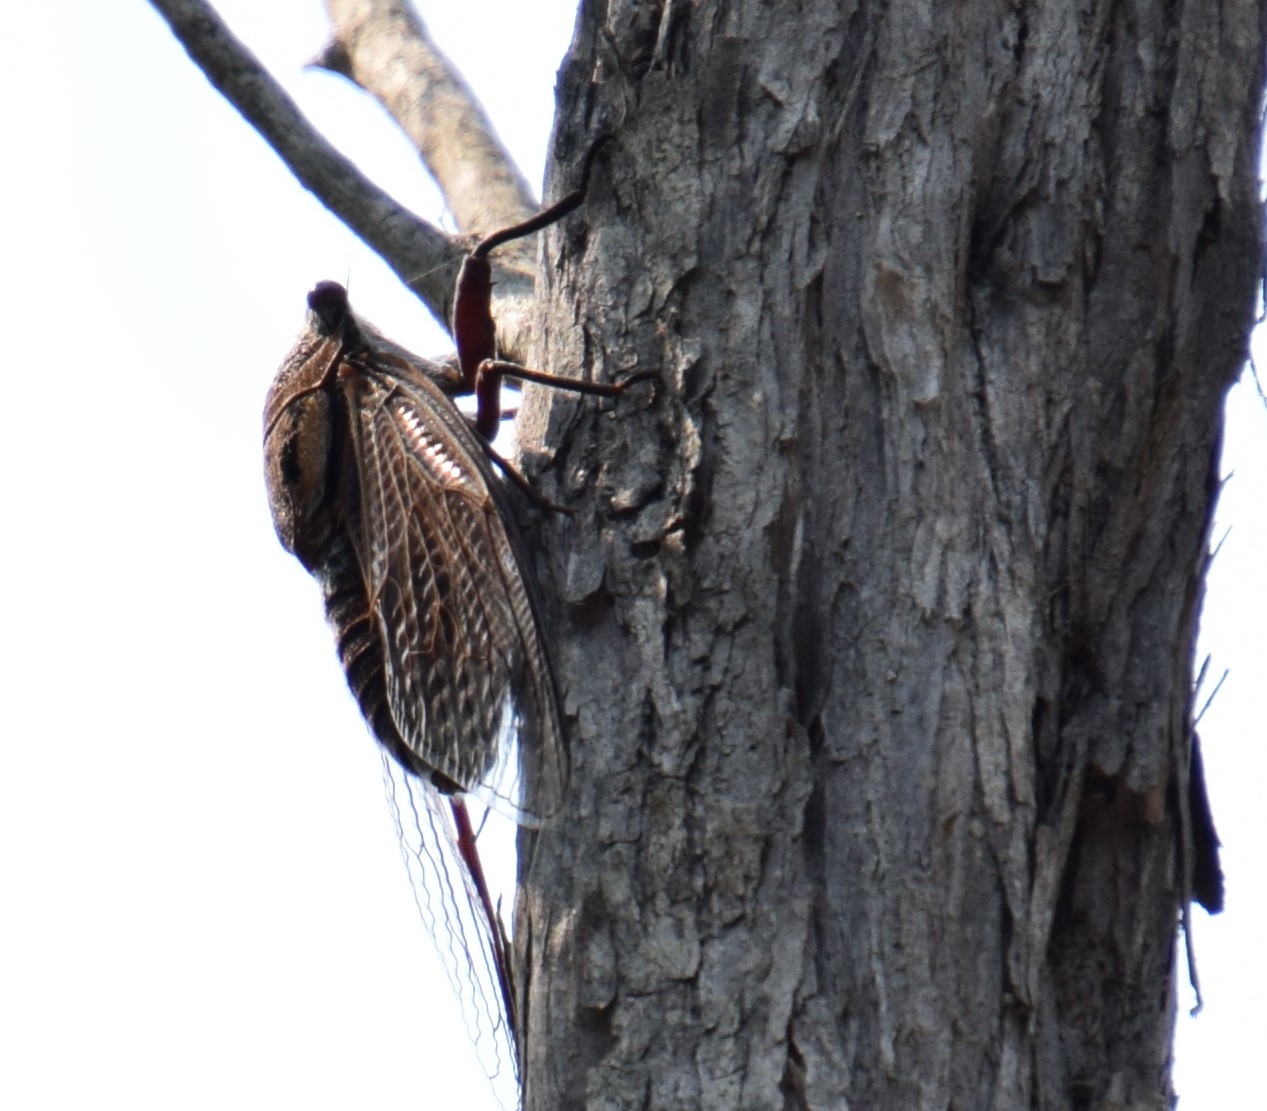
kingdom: Animalia
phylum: Arthropoda
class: Insecta
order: Hemiptera
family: Cicadidae
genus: Thopha
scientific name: Thopha saccata
